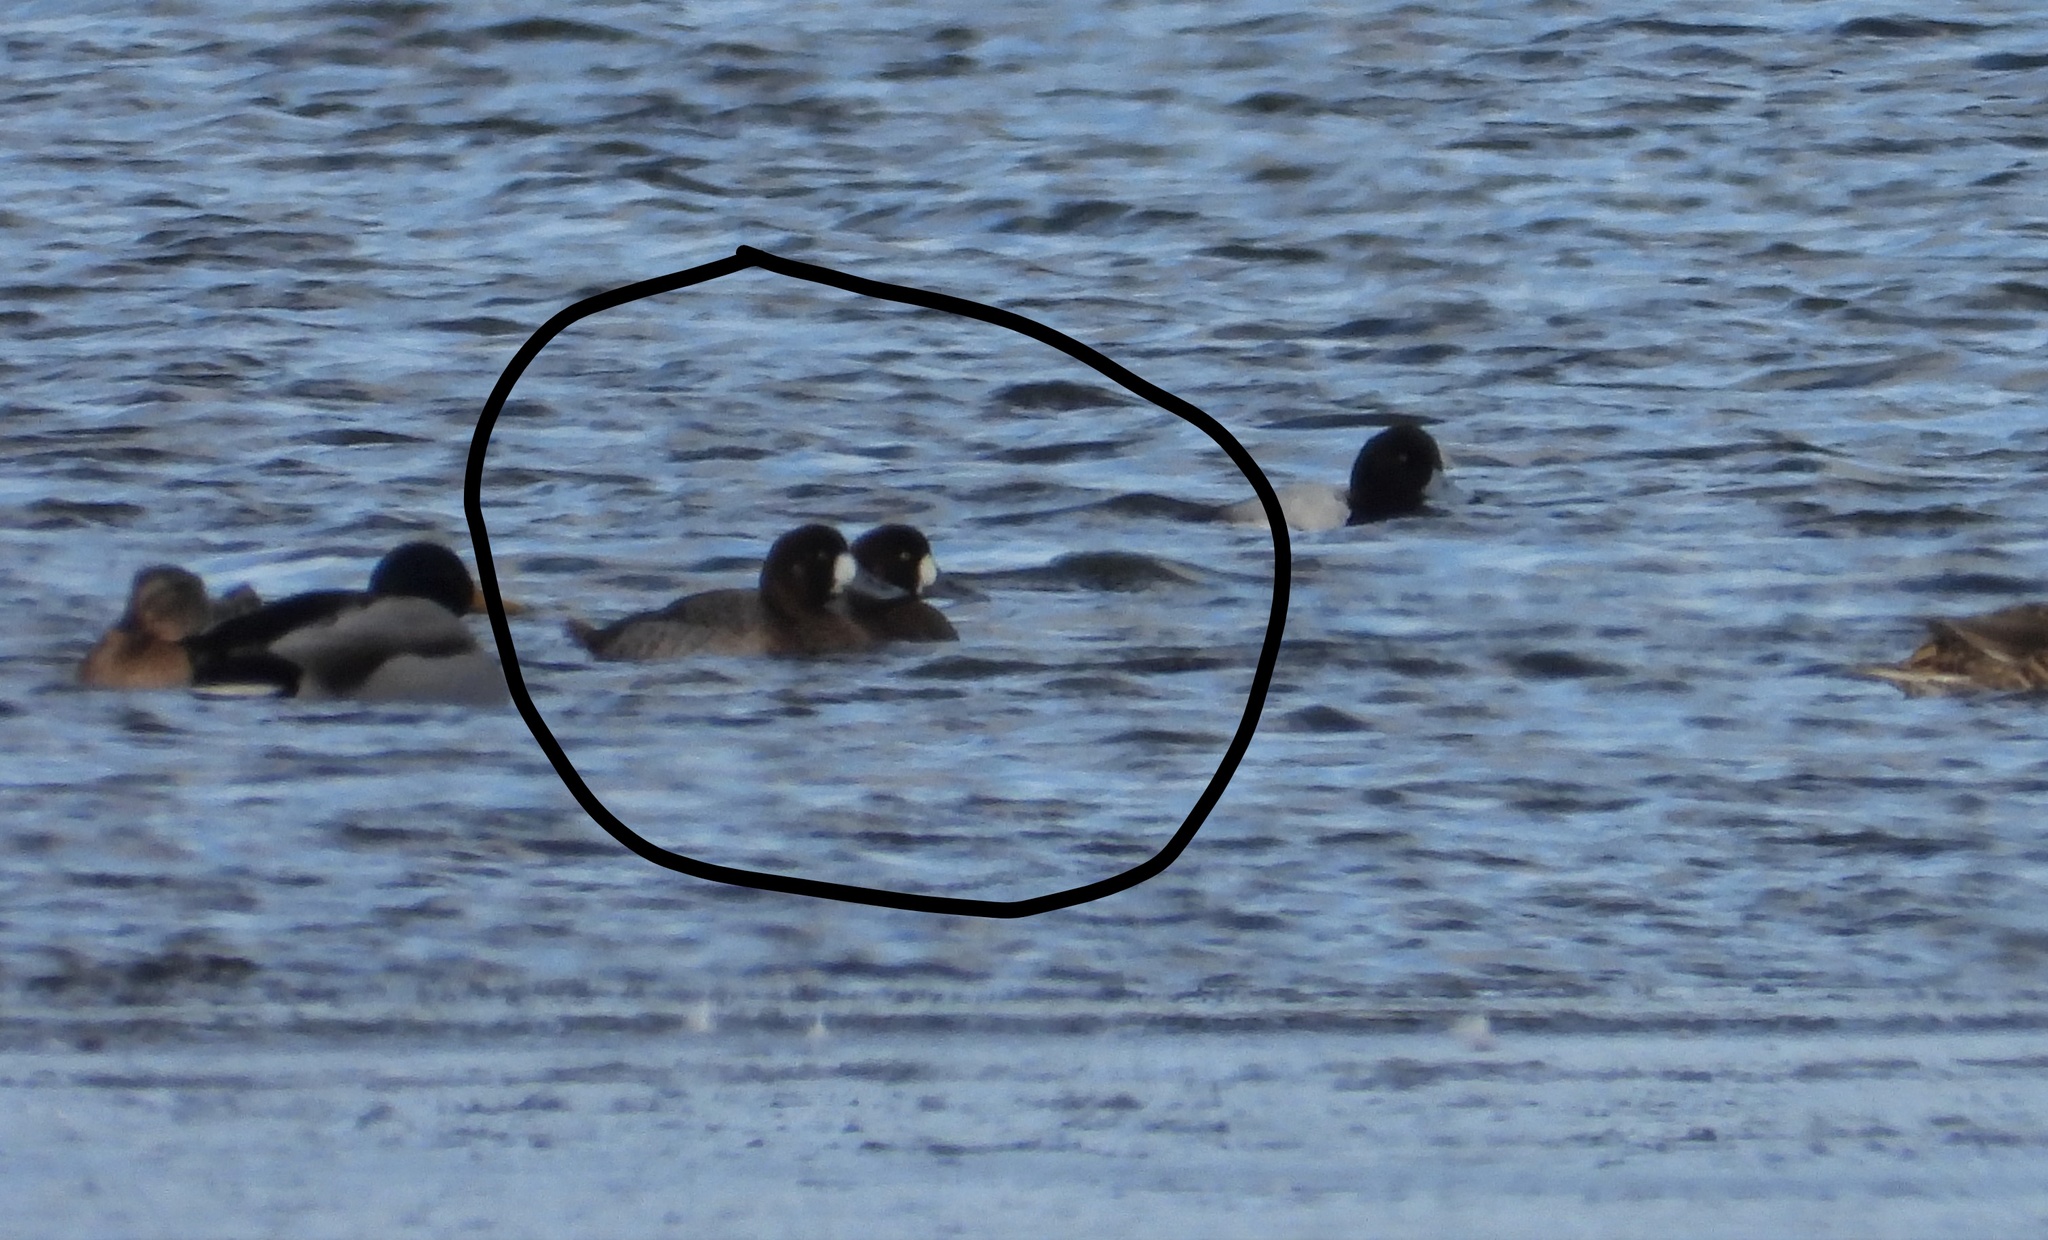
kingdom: Animalia
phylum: Chordata
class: Aves
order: Anseriformes
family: Anatidae
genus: Aythya
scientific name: Aythya marila
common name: Greater scaup
